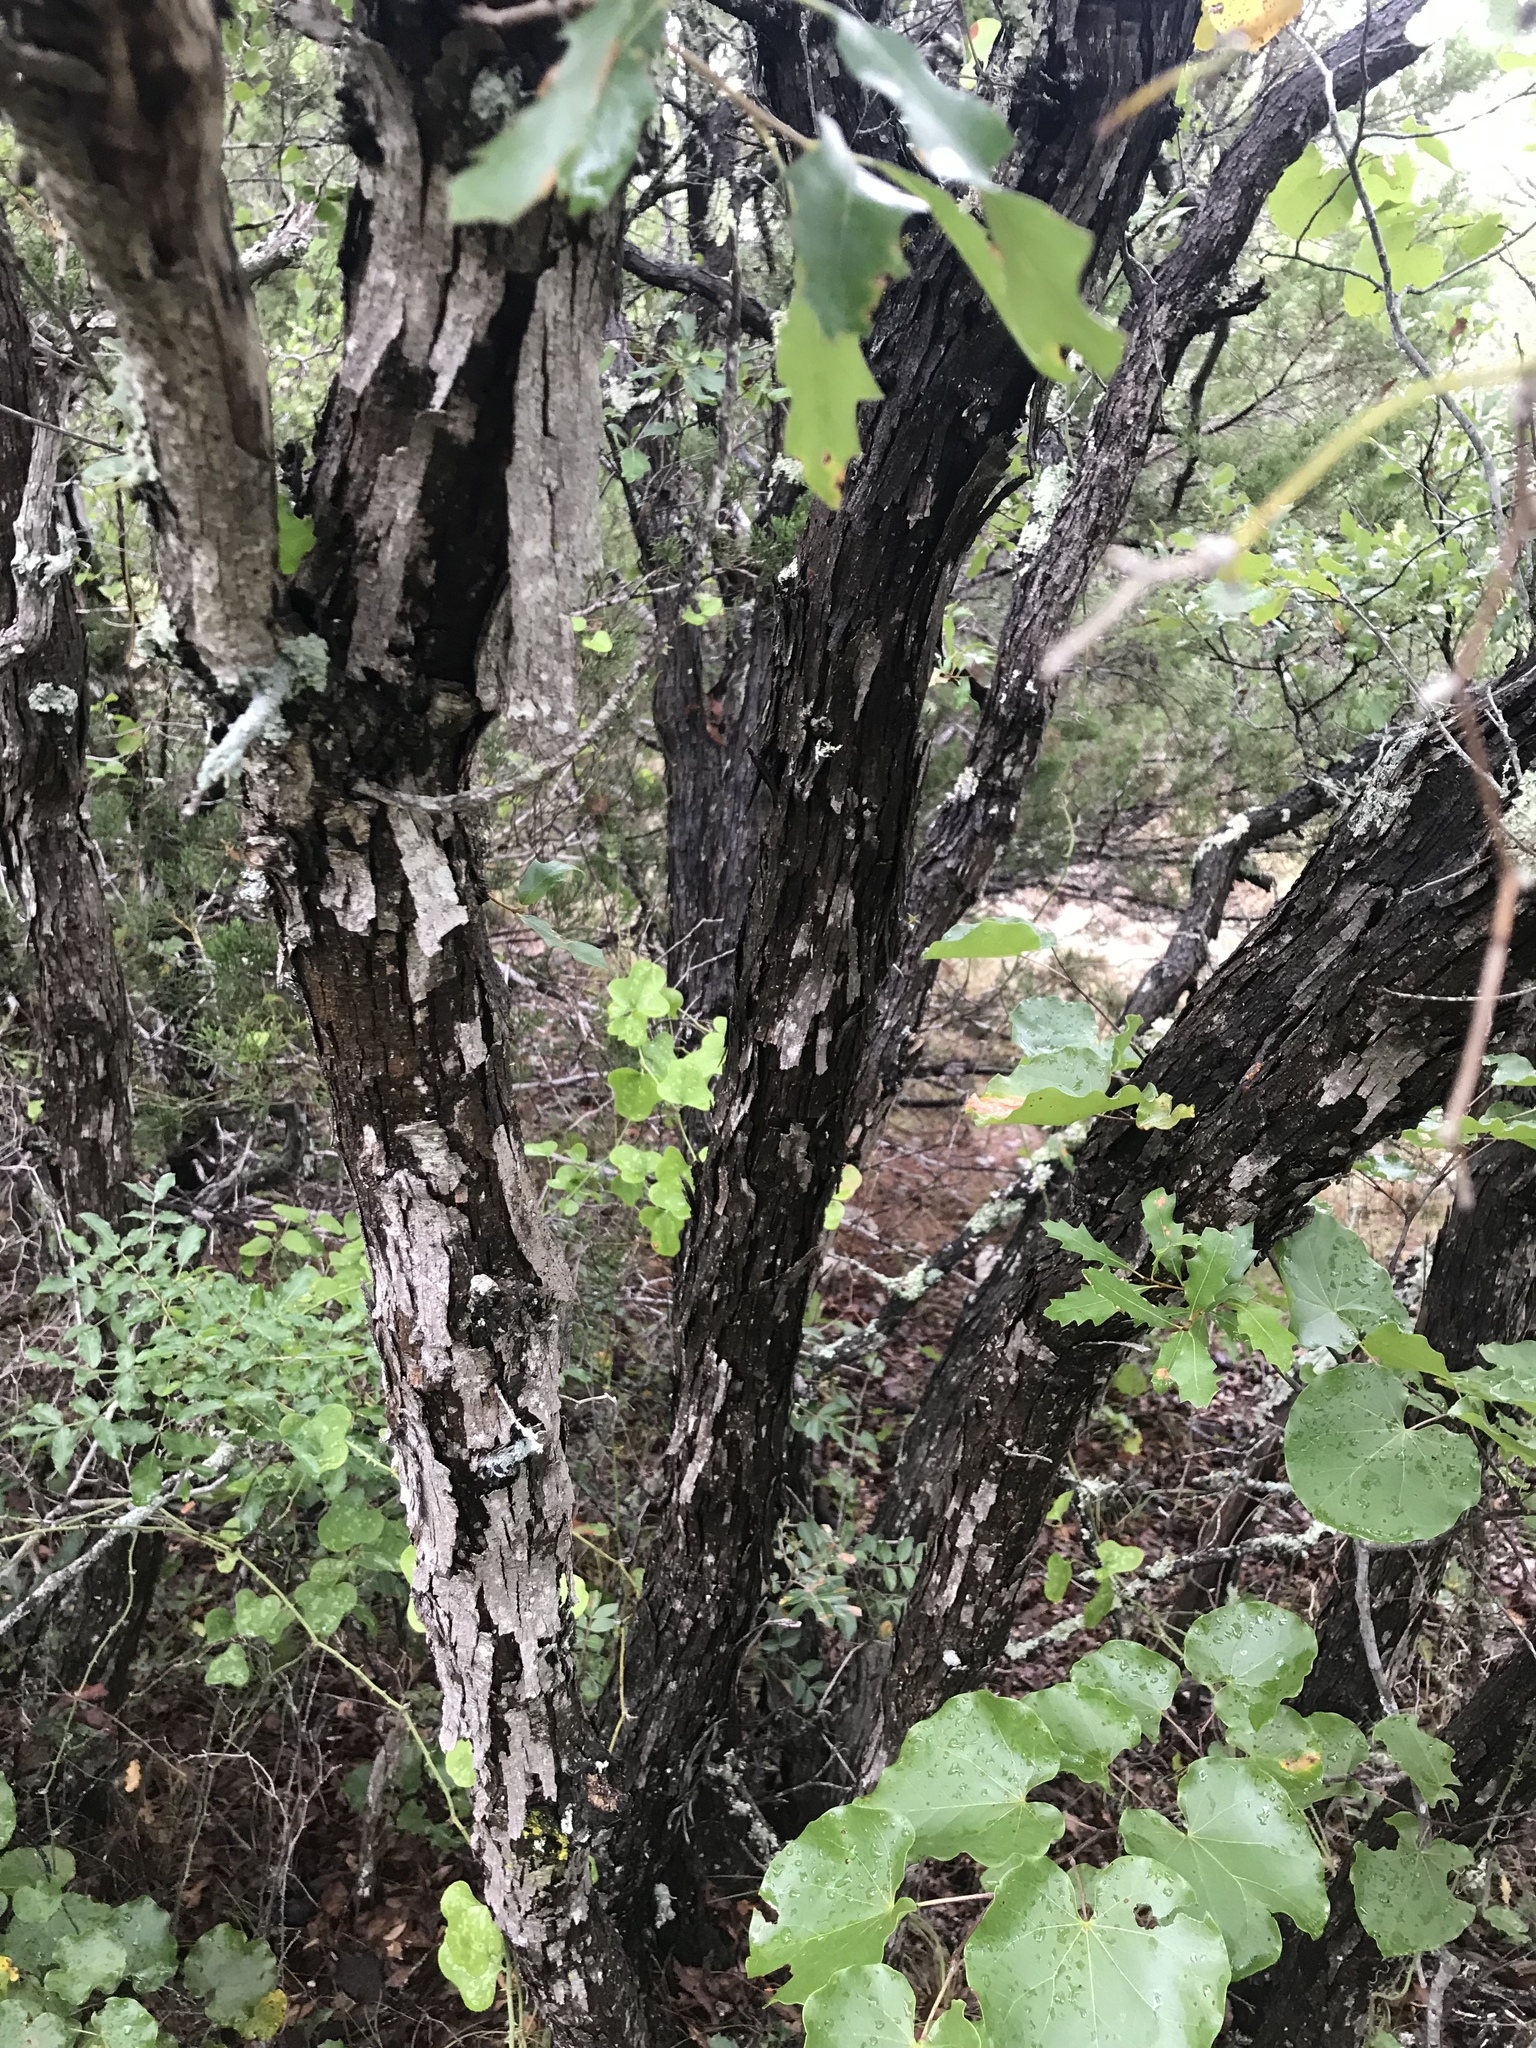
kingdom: Plantae
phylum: Tracheophyta
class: Magnoliopsida
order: Fagales
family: Fagaceae
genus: Quercus
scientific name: Quercus vaseyana
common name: Sandpaper oak
